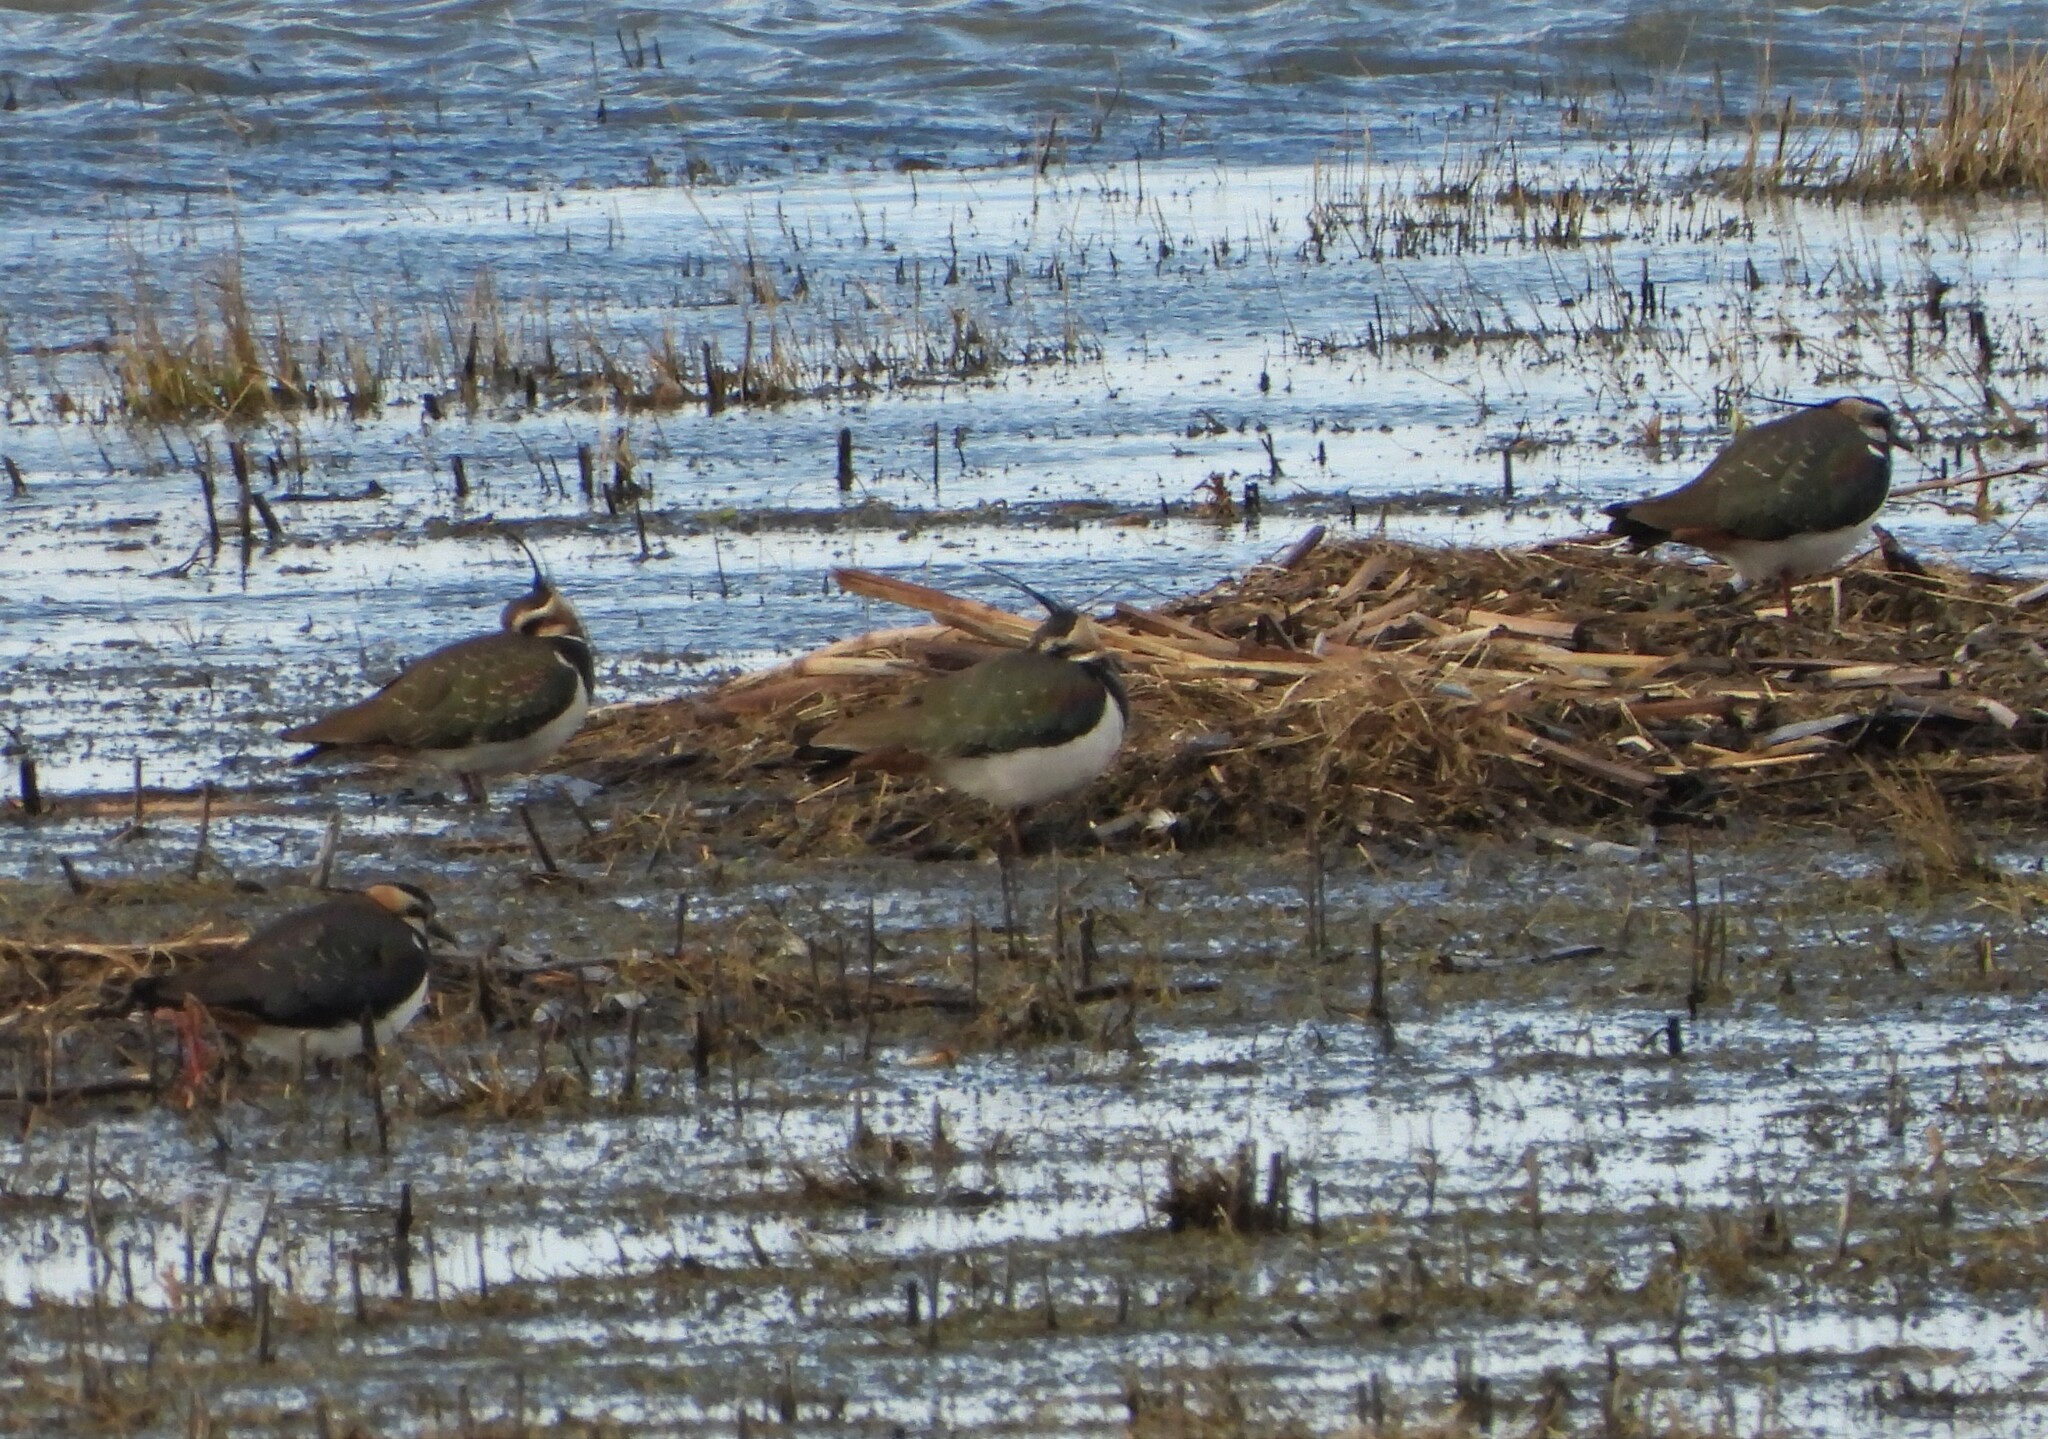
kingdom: Animalia
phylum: Chordata
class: Aves
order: Charadriiformes
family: Charadriidae
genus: Vanellus
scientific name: Vanellus vanellus
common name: Northern lapwing
